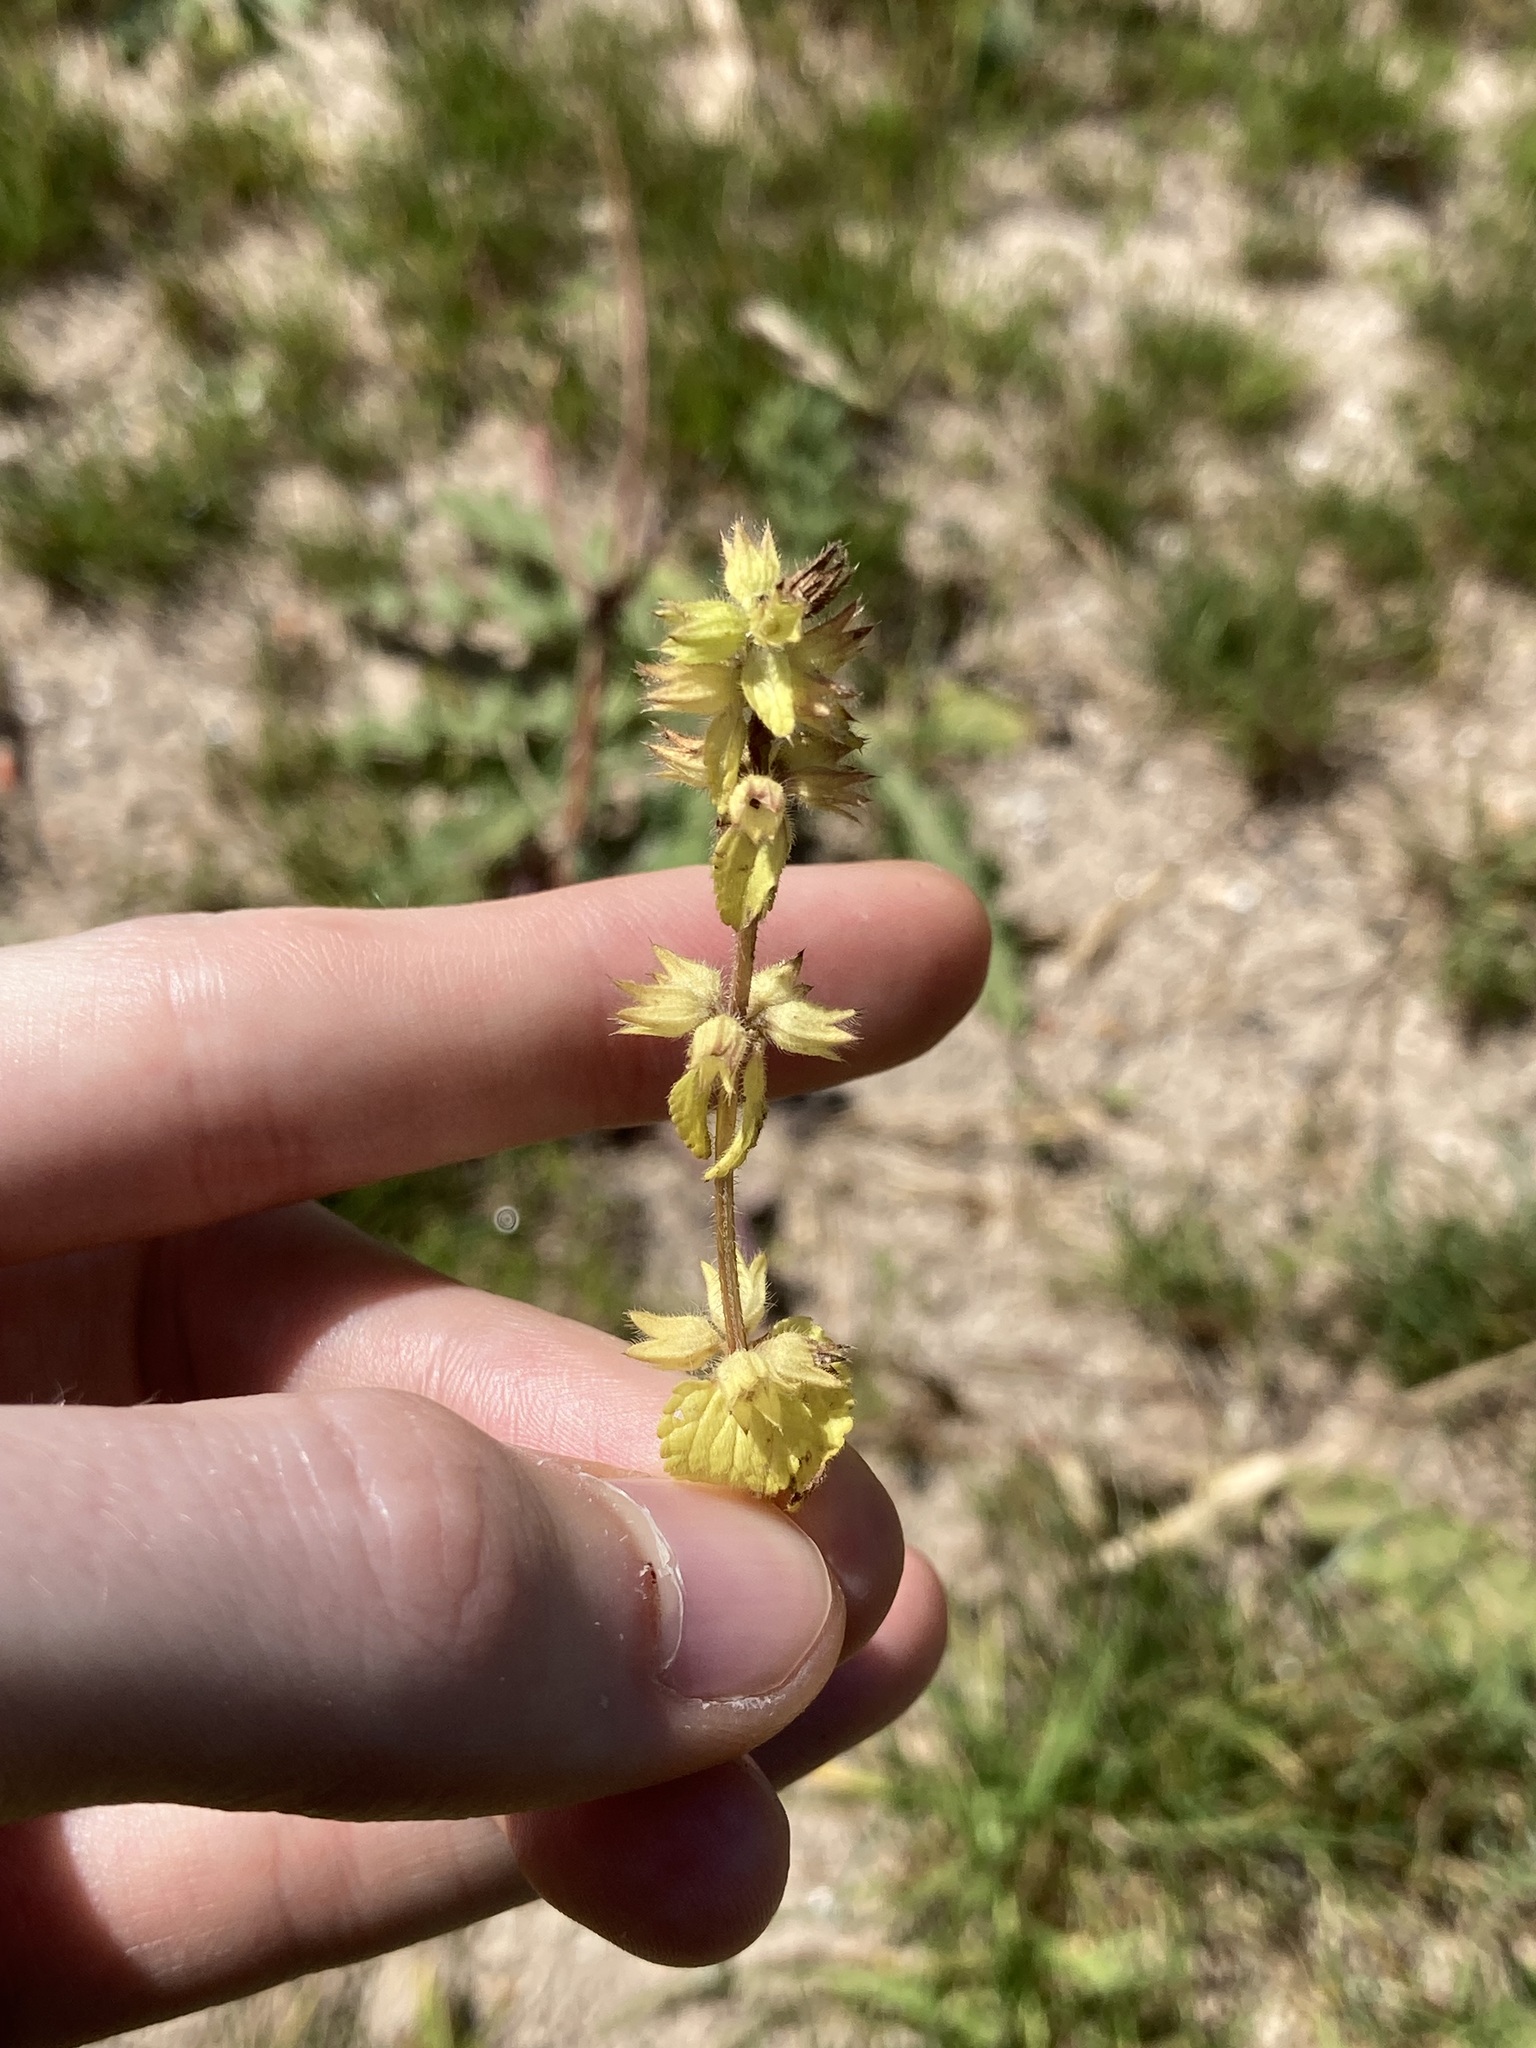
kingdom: Plantae
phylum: Tracheophyta
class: Magnoliopsida
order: Lamiales
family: Lamiaceae
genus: Stachys
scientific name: Stachys arvensis
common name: Field woundwort
